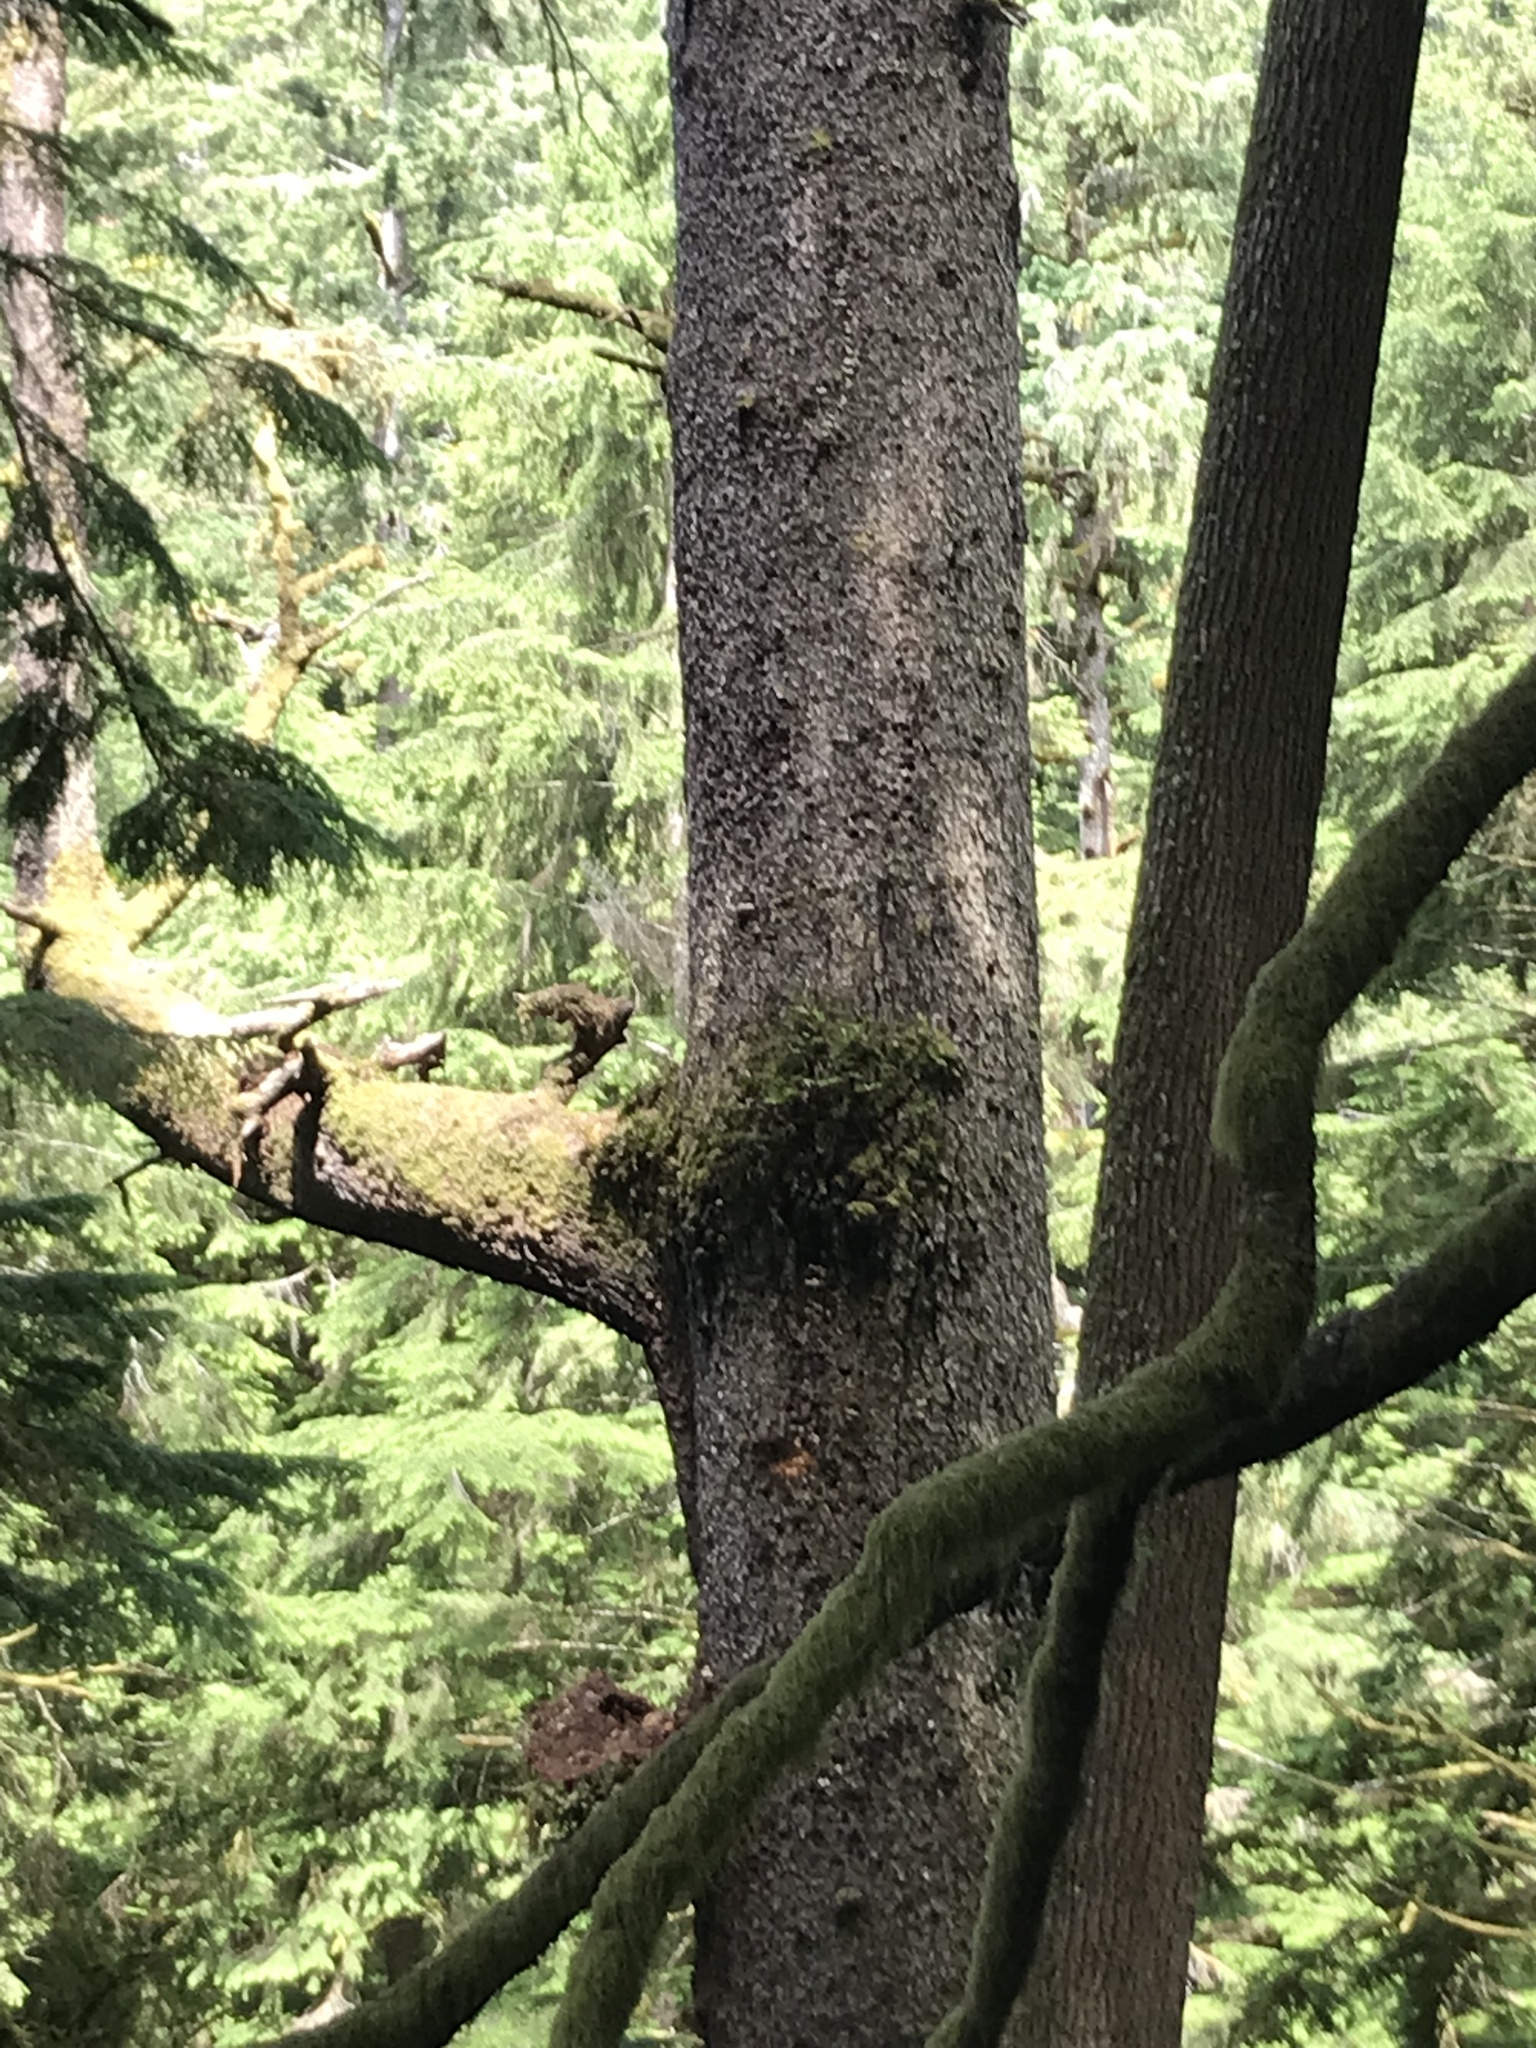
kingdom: Plantae
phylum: Tracheophyta
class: Pinopsida
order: Pinales
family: Pinaceae
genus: Picea
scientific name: Picea sitchensis
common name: Sitka spruce
